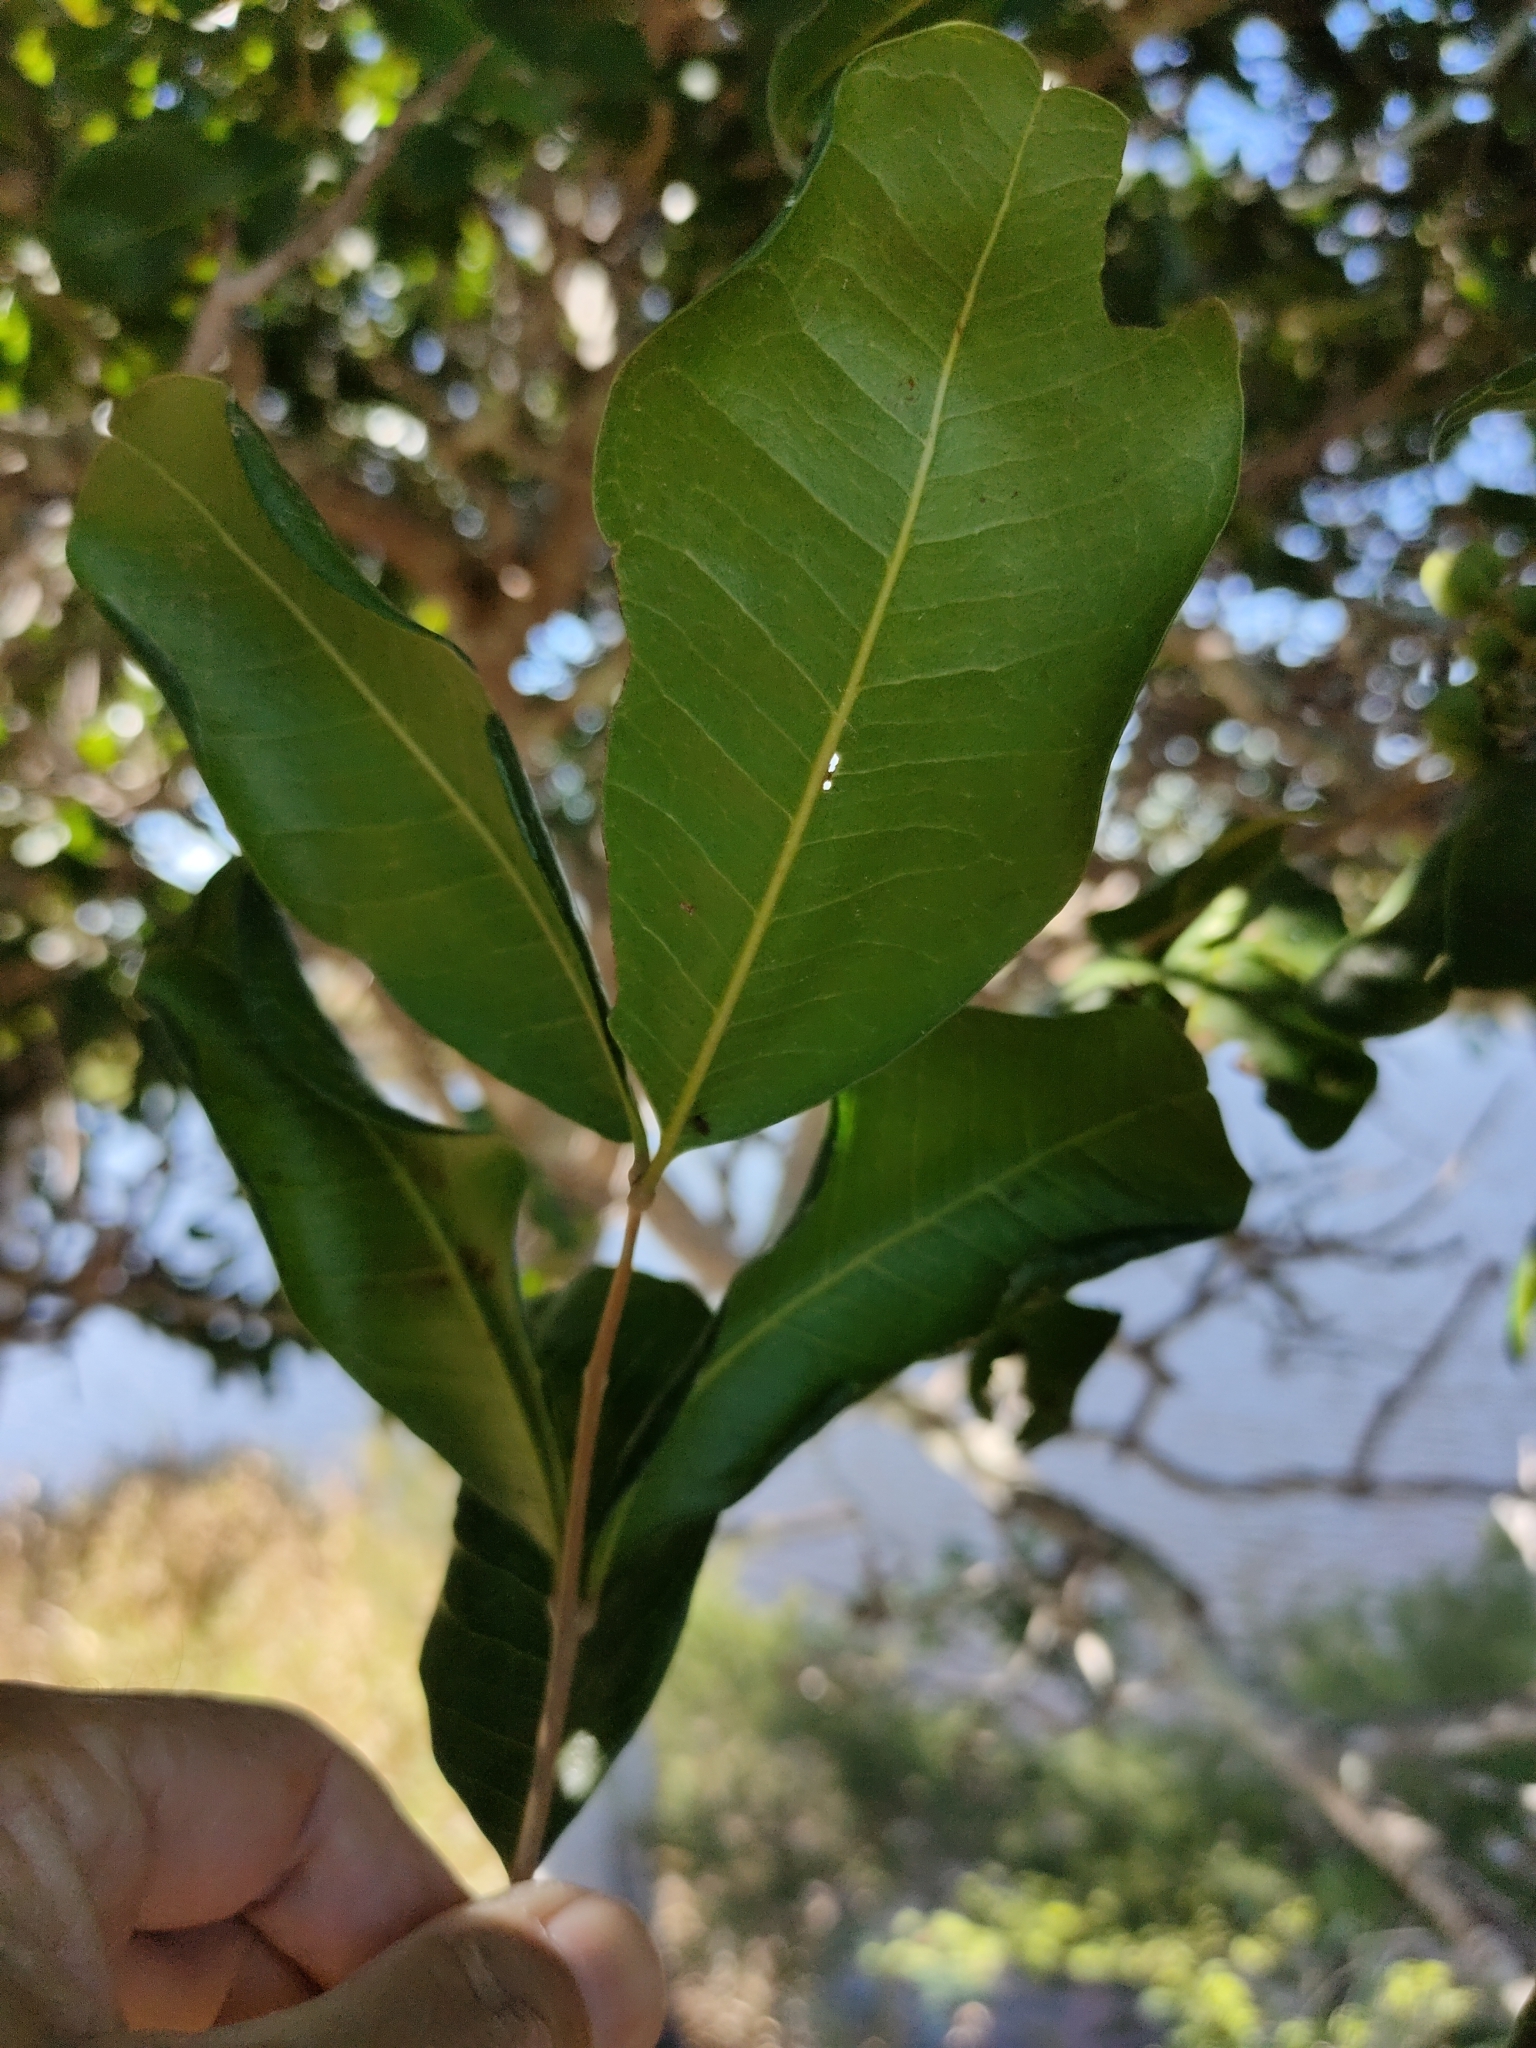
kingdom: Plantae
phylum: Tracheophyta
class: Magnoliopsida
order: Sapindales
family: Sapindaceae
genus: Cupaniopsis
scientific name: Cupaniopsis anacardioides
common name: Carrotwood
